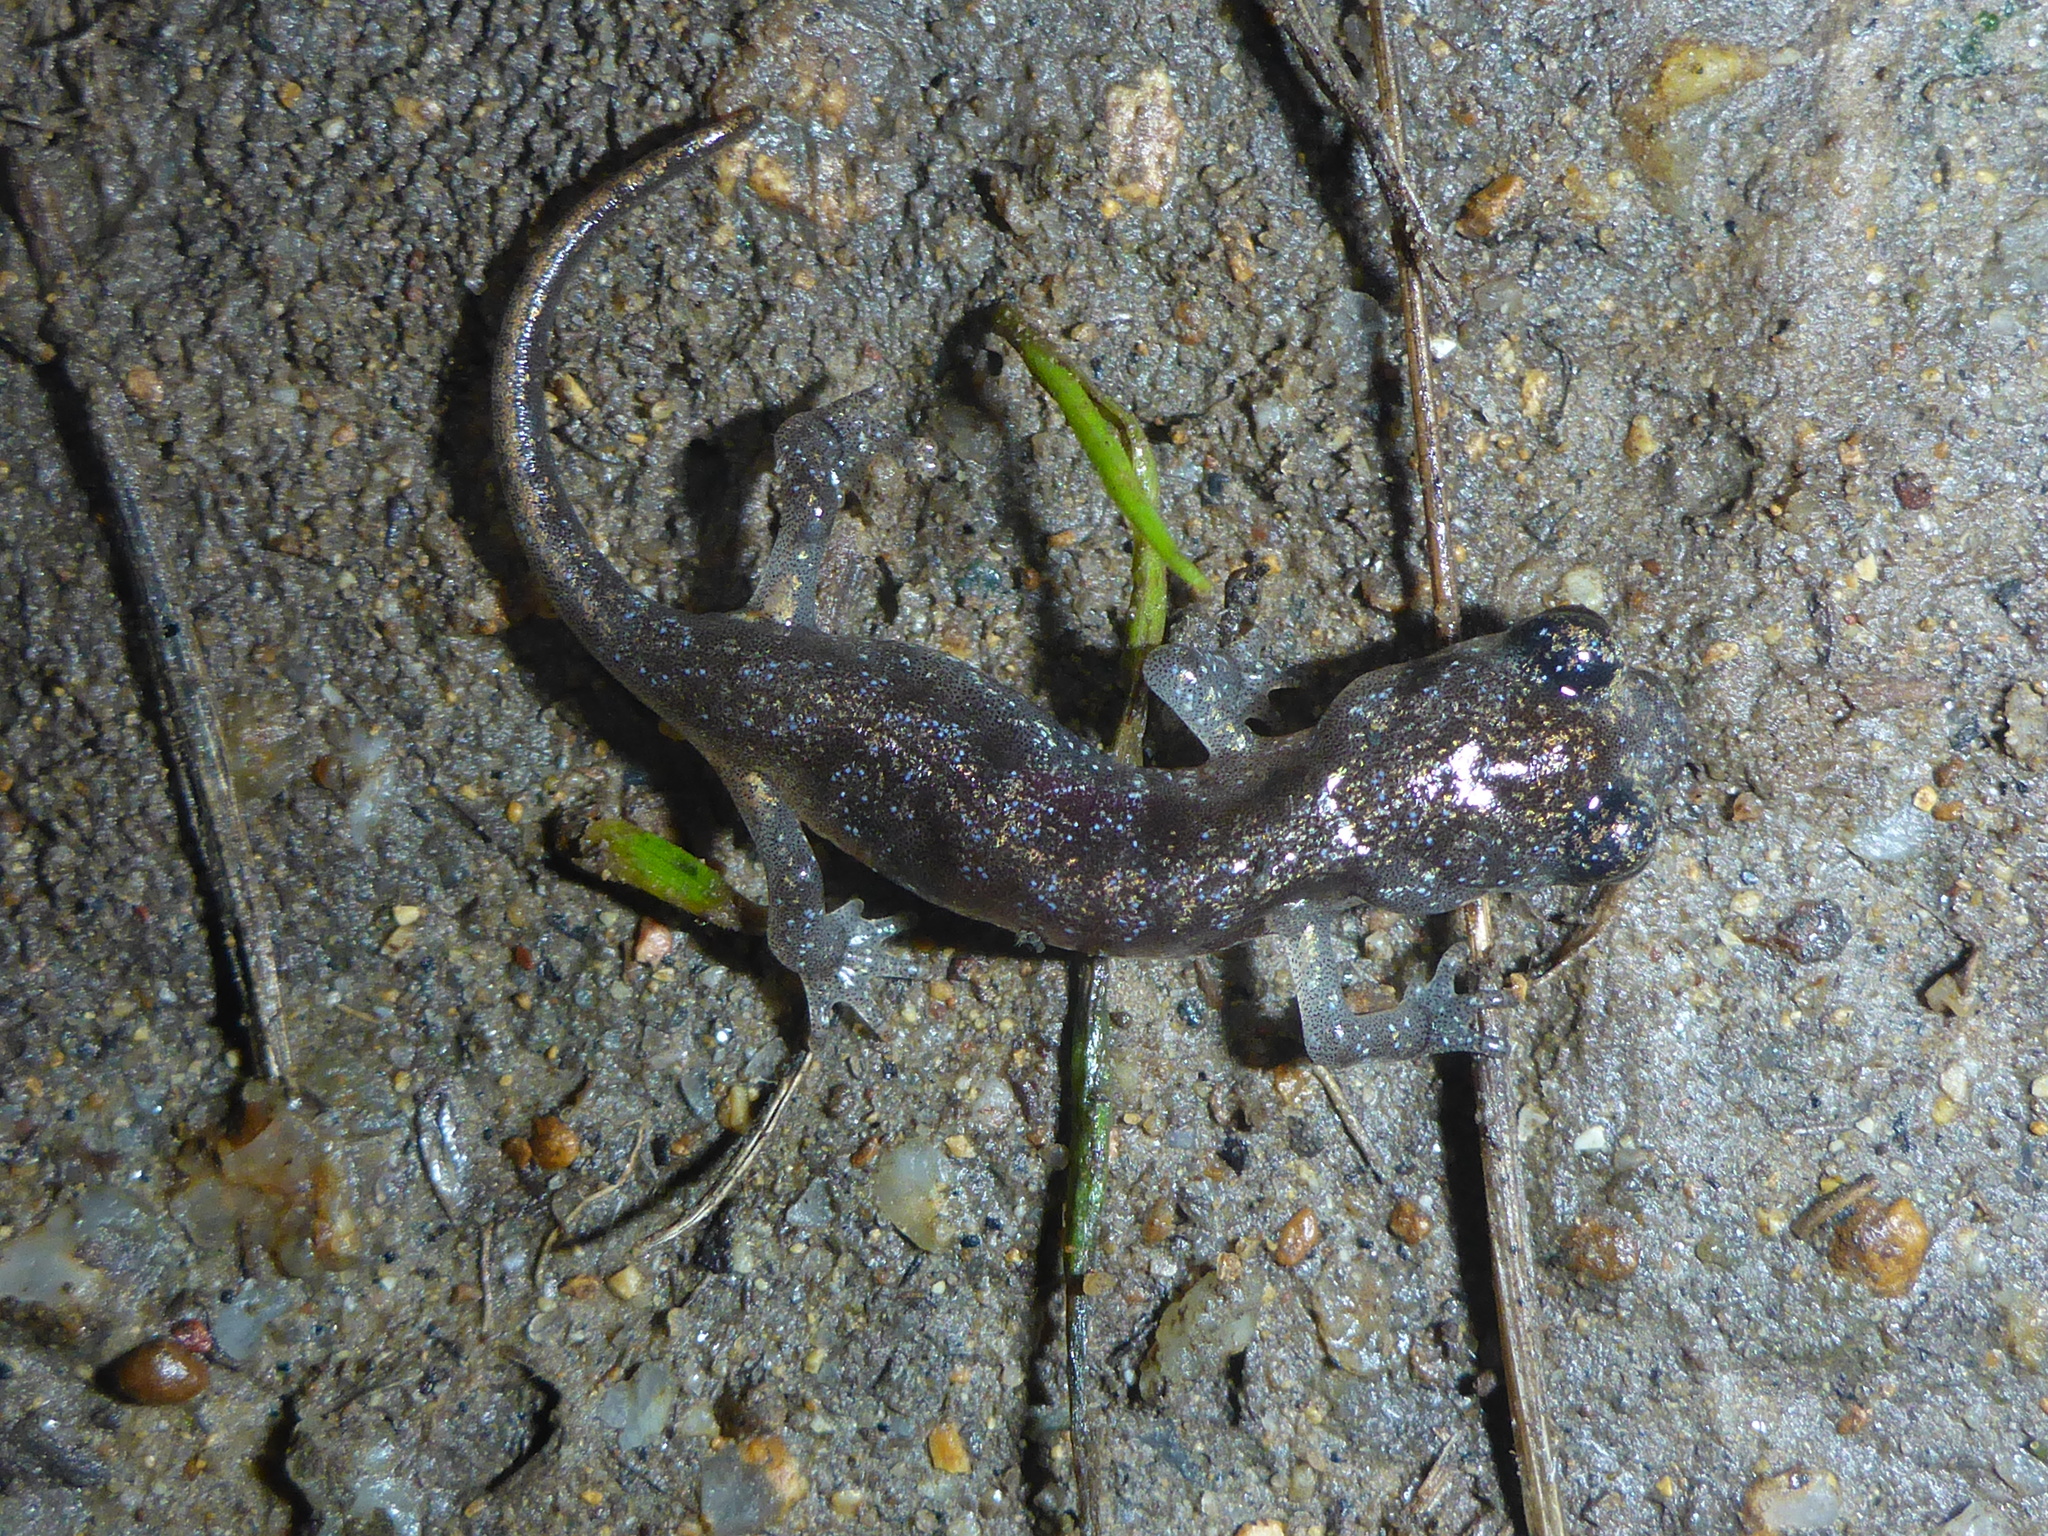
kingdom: Animalia
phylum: Chordata
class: Amphibia
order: Caudata
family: Plethodontidae
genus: Aneides
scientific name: Aneides lugubris
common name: Arboreal salamander
